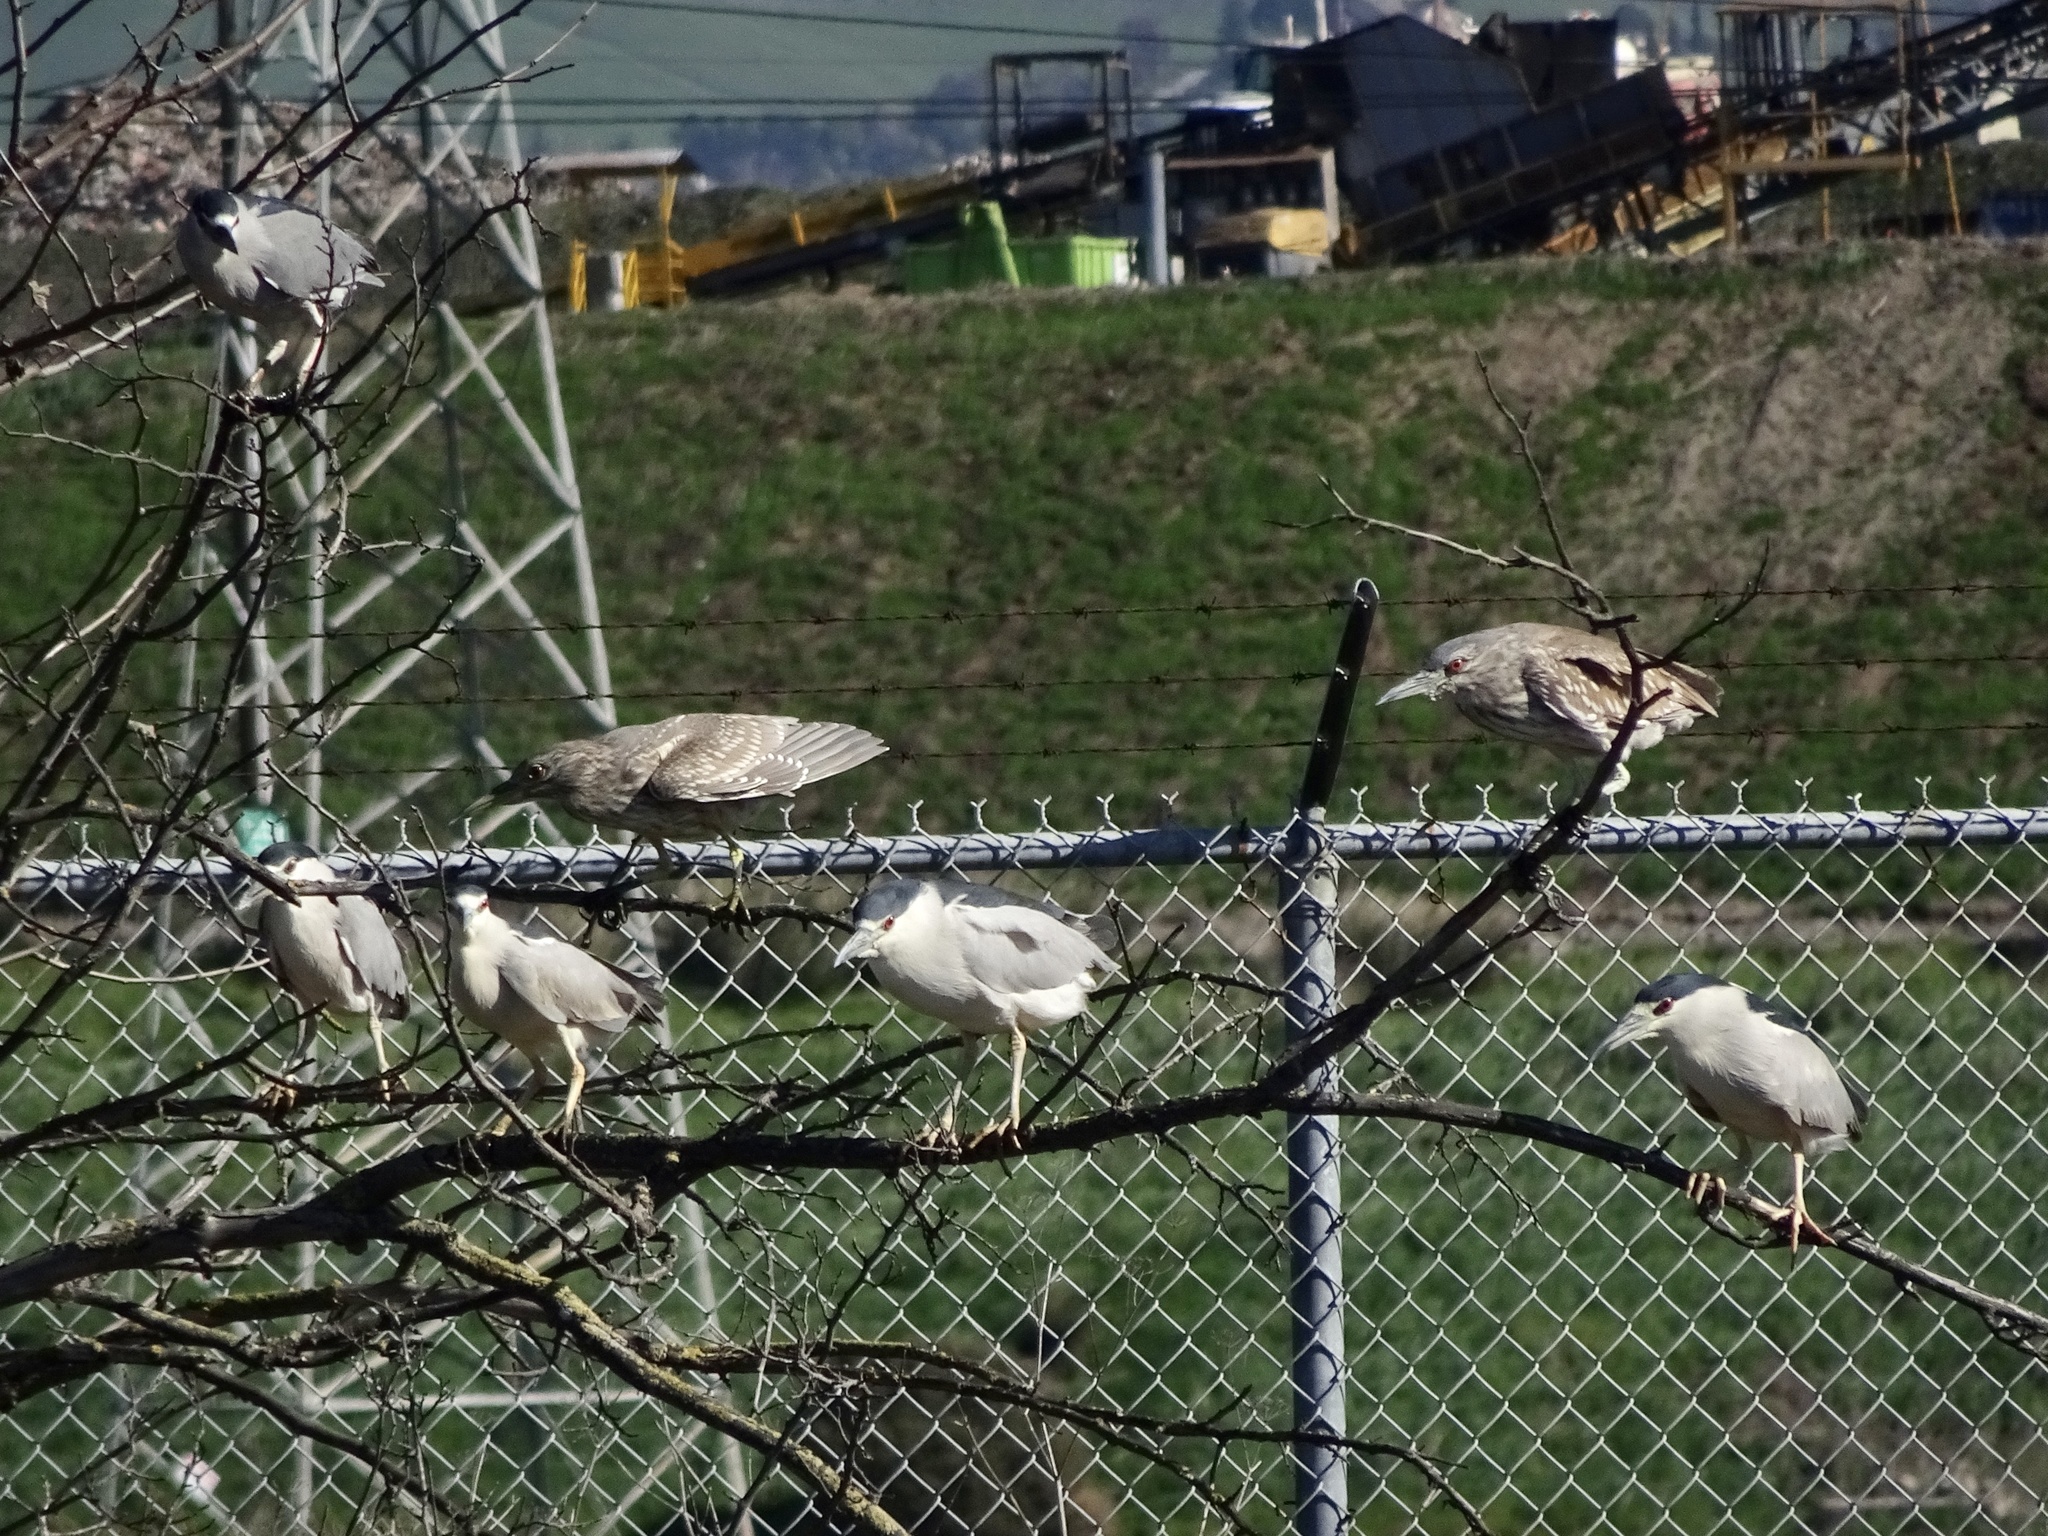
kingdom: Animalia
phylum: Chordata
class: Aves
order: Pelecaniformes
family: Ardeidae
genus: Nycticorax
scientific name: Nycticorax nycticorax
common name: Black-crowned night heron
